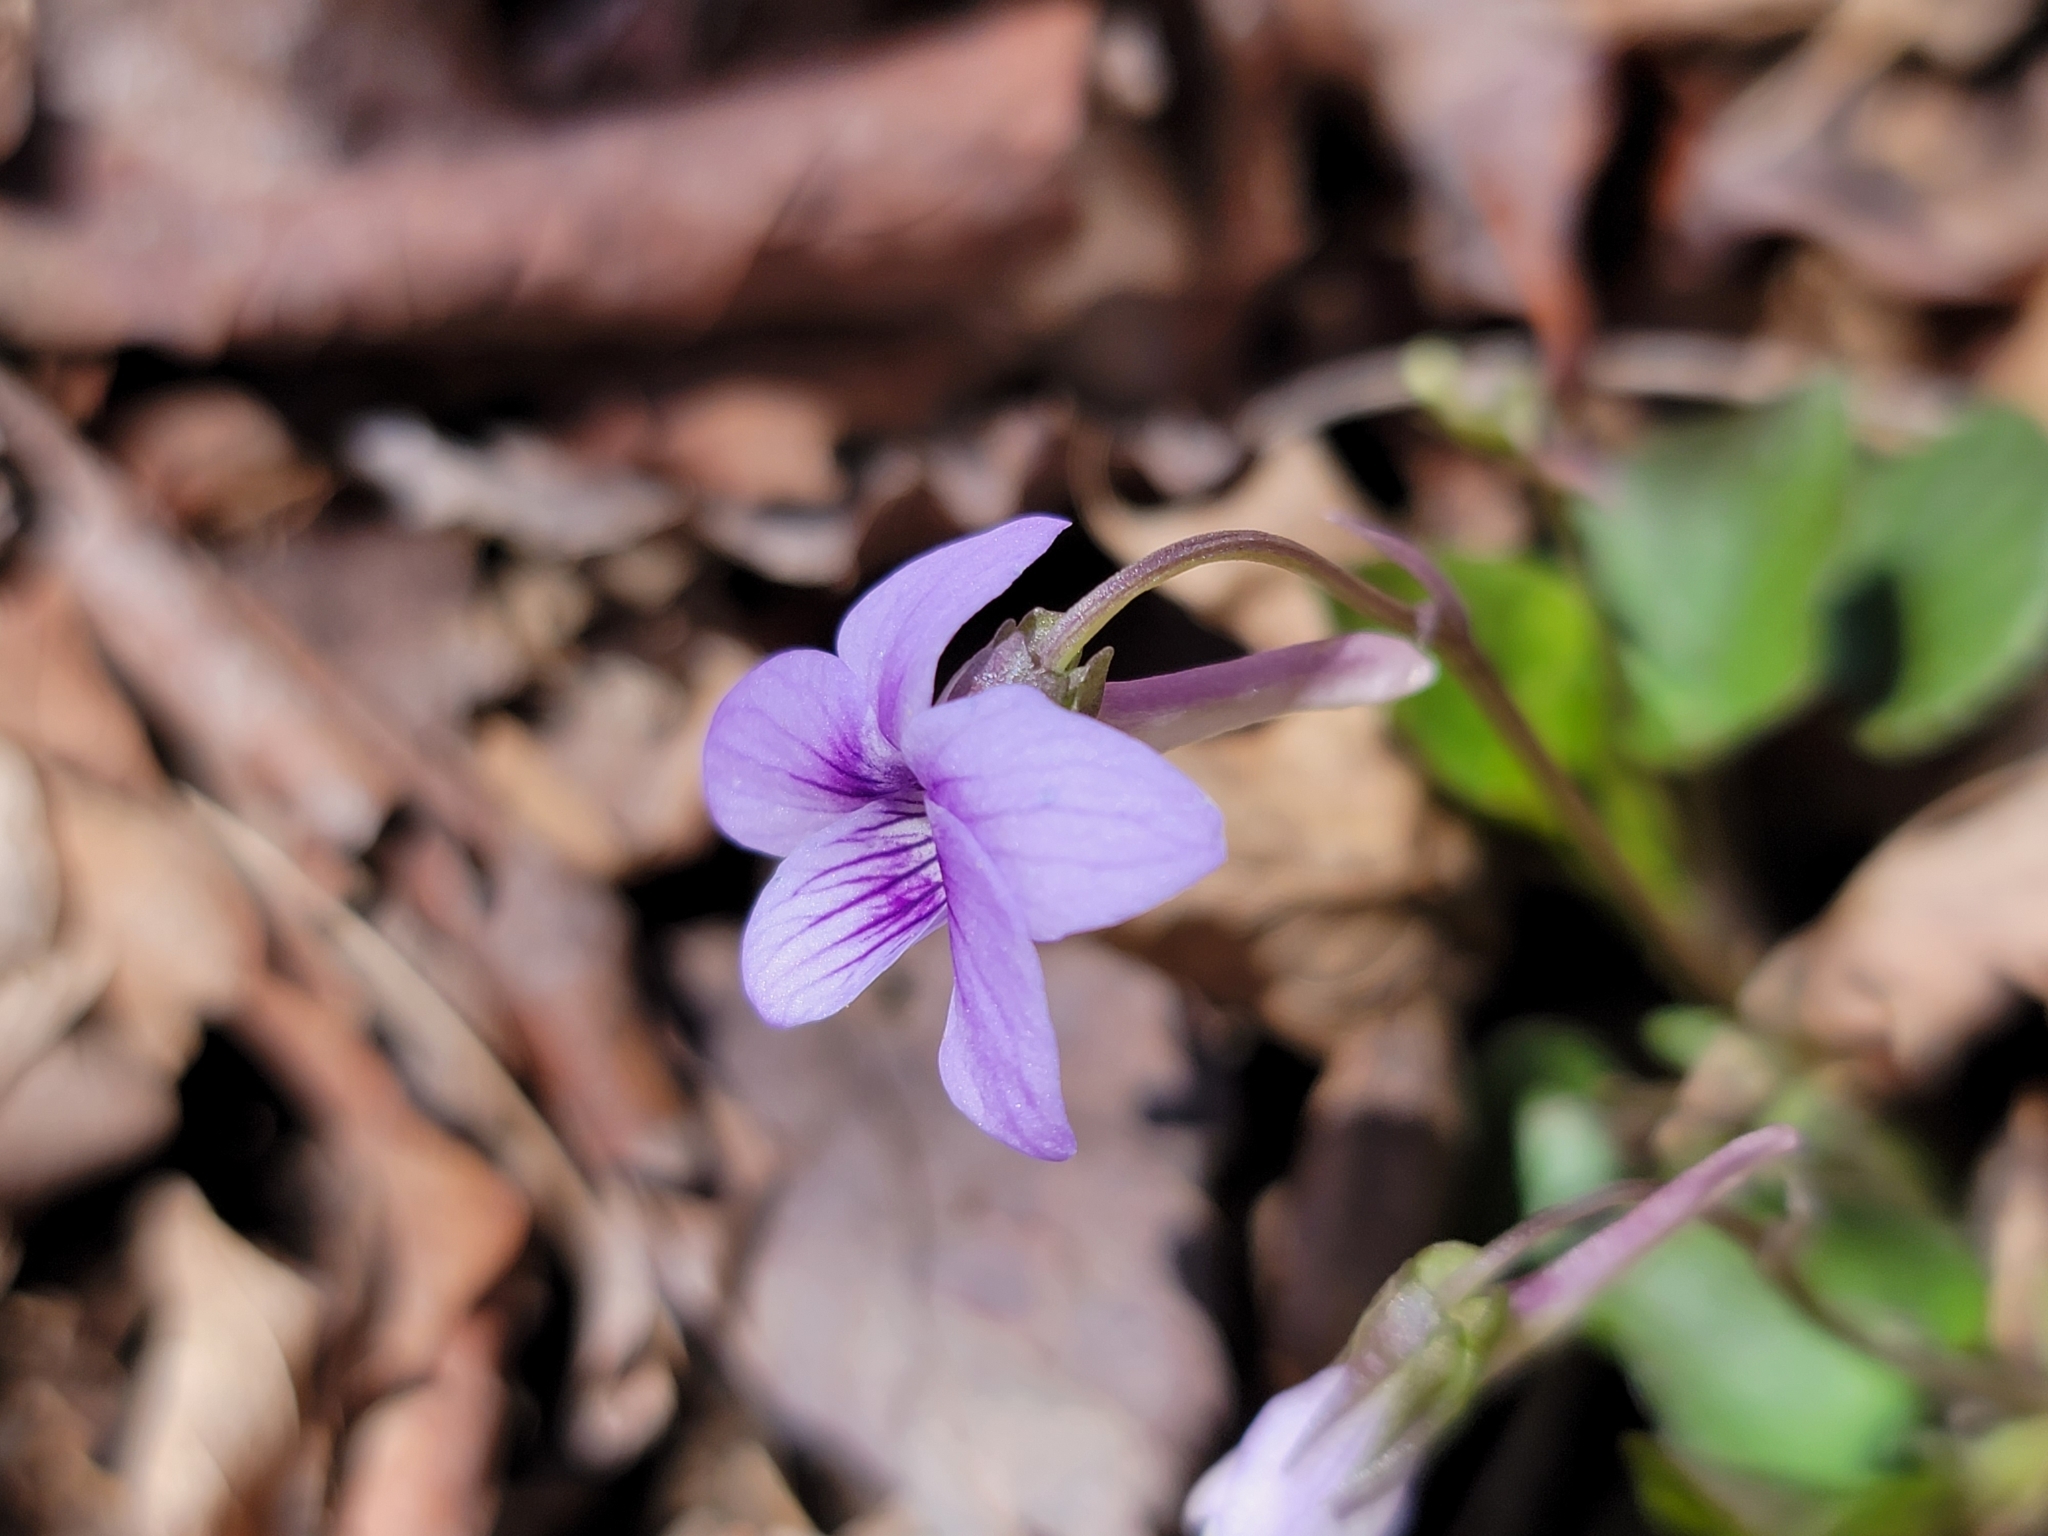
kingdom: Plantae
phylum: Tracheophyta
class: Magnoliopsida
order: Malpighiales
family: Violaceae
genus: Viola
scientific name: Viola rostrata
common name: Long-spur violet
